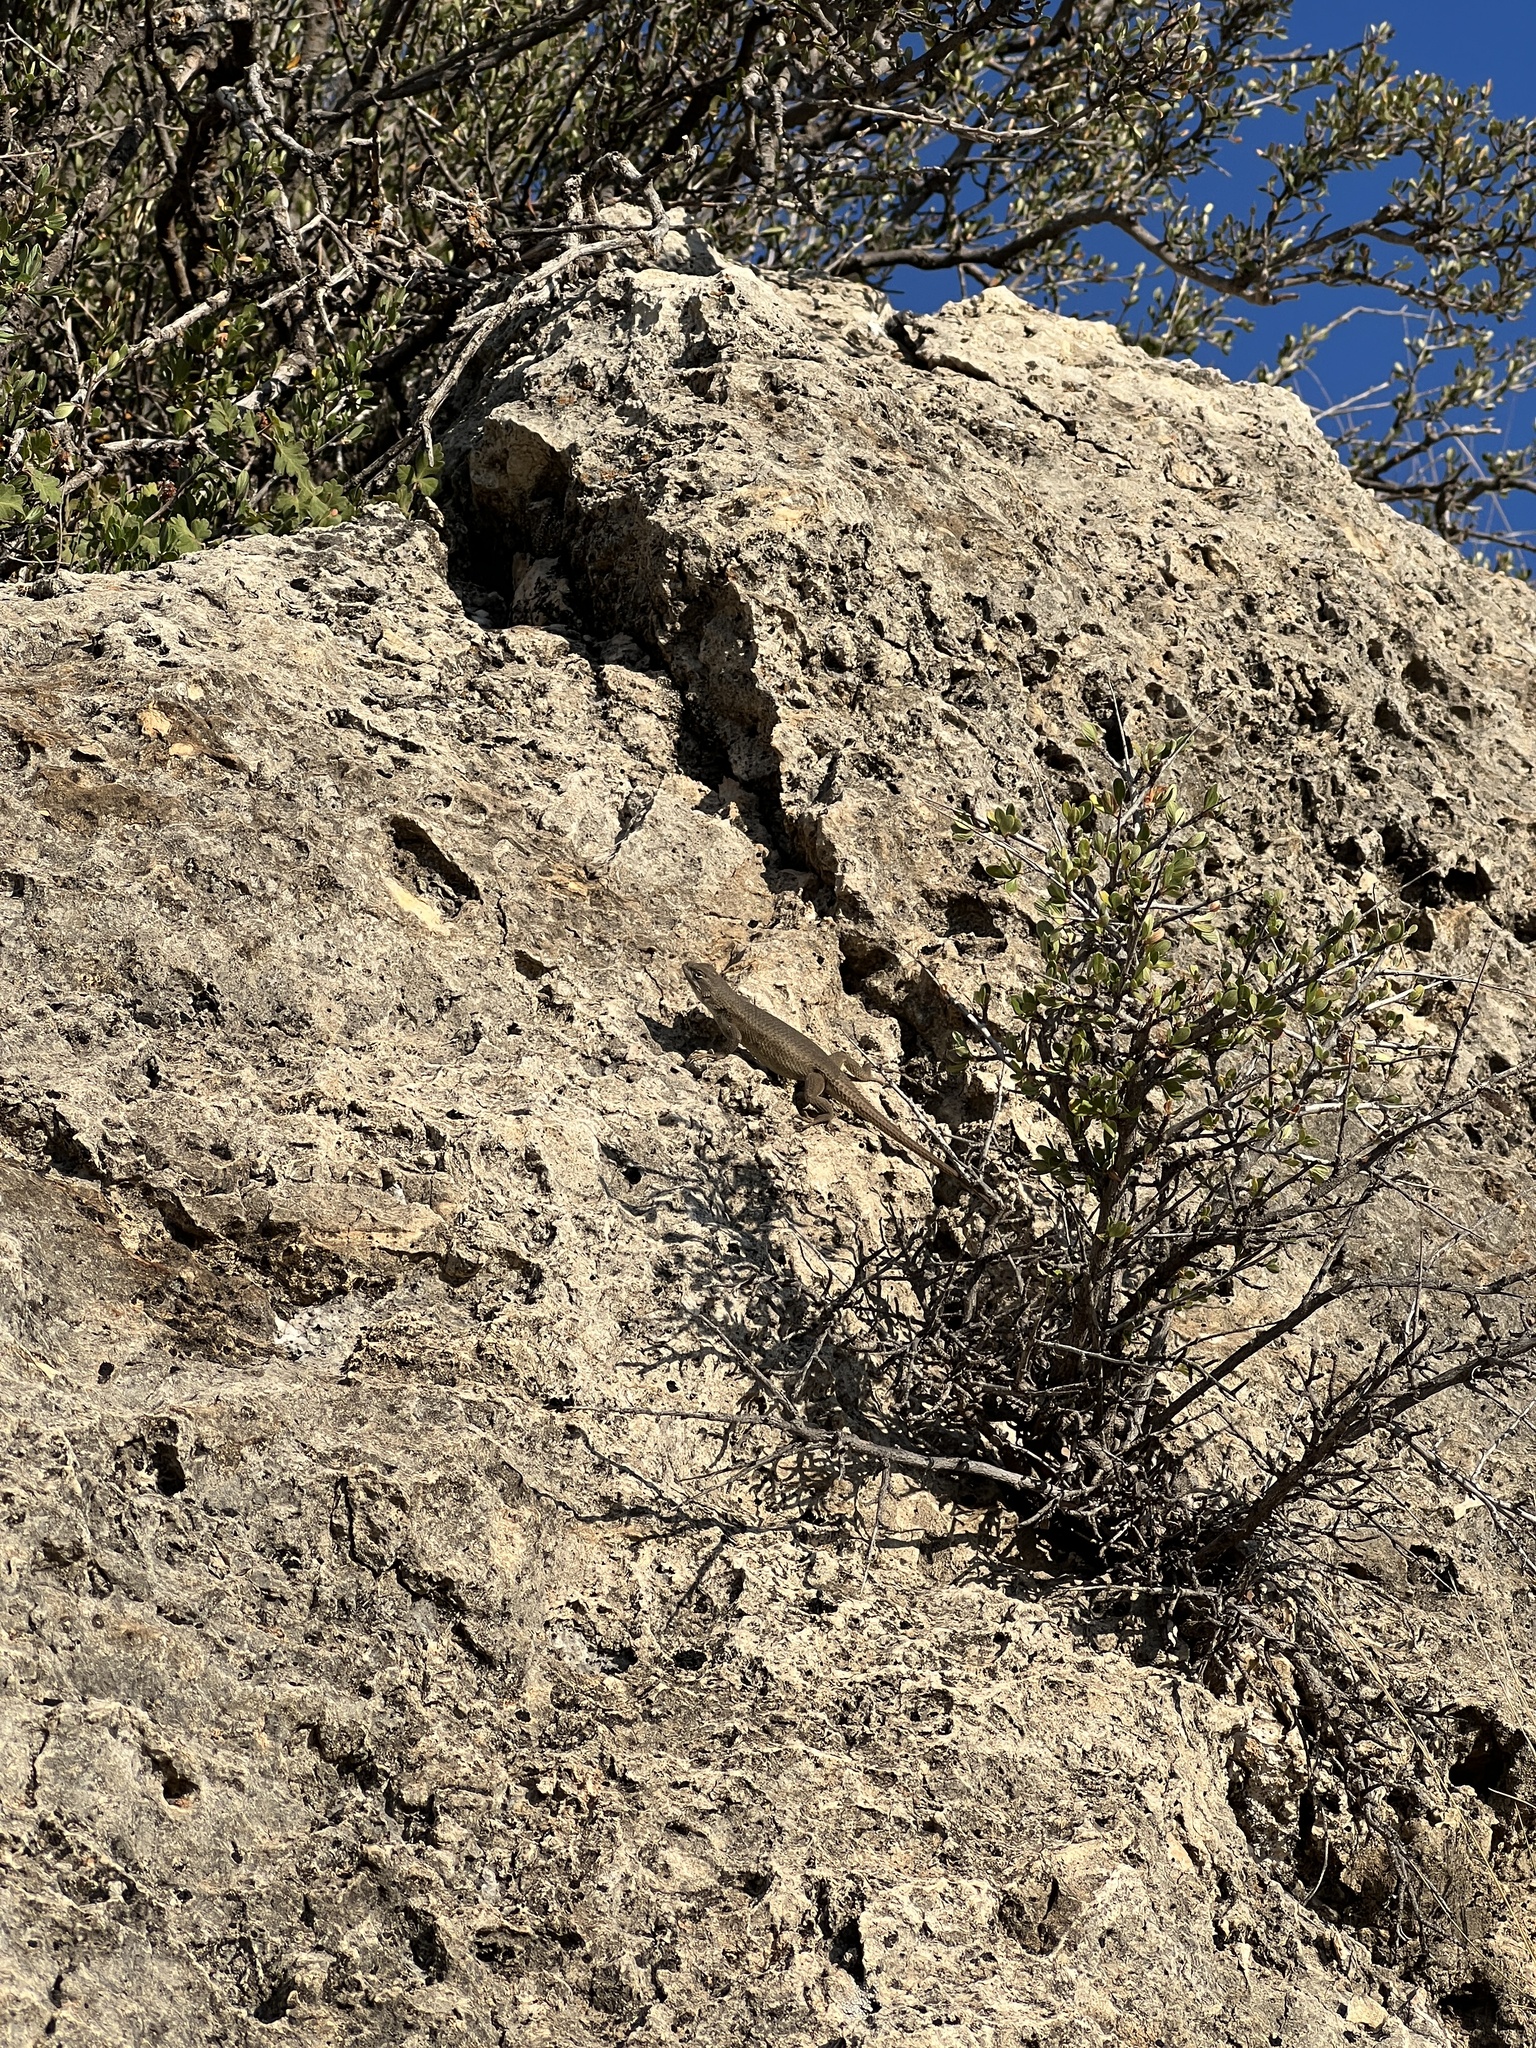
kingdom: Animalia
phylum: Chordata
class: Squamata
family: Phrynosomatidae
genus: Sceloporus
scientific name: Sceloporus cowlesi
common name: White sands prairie lizard
